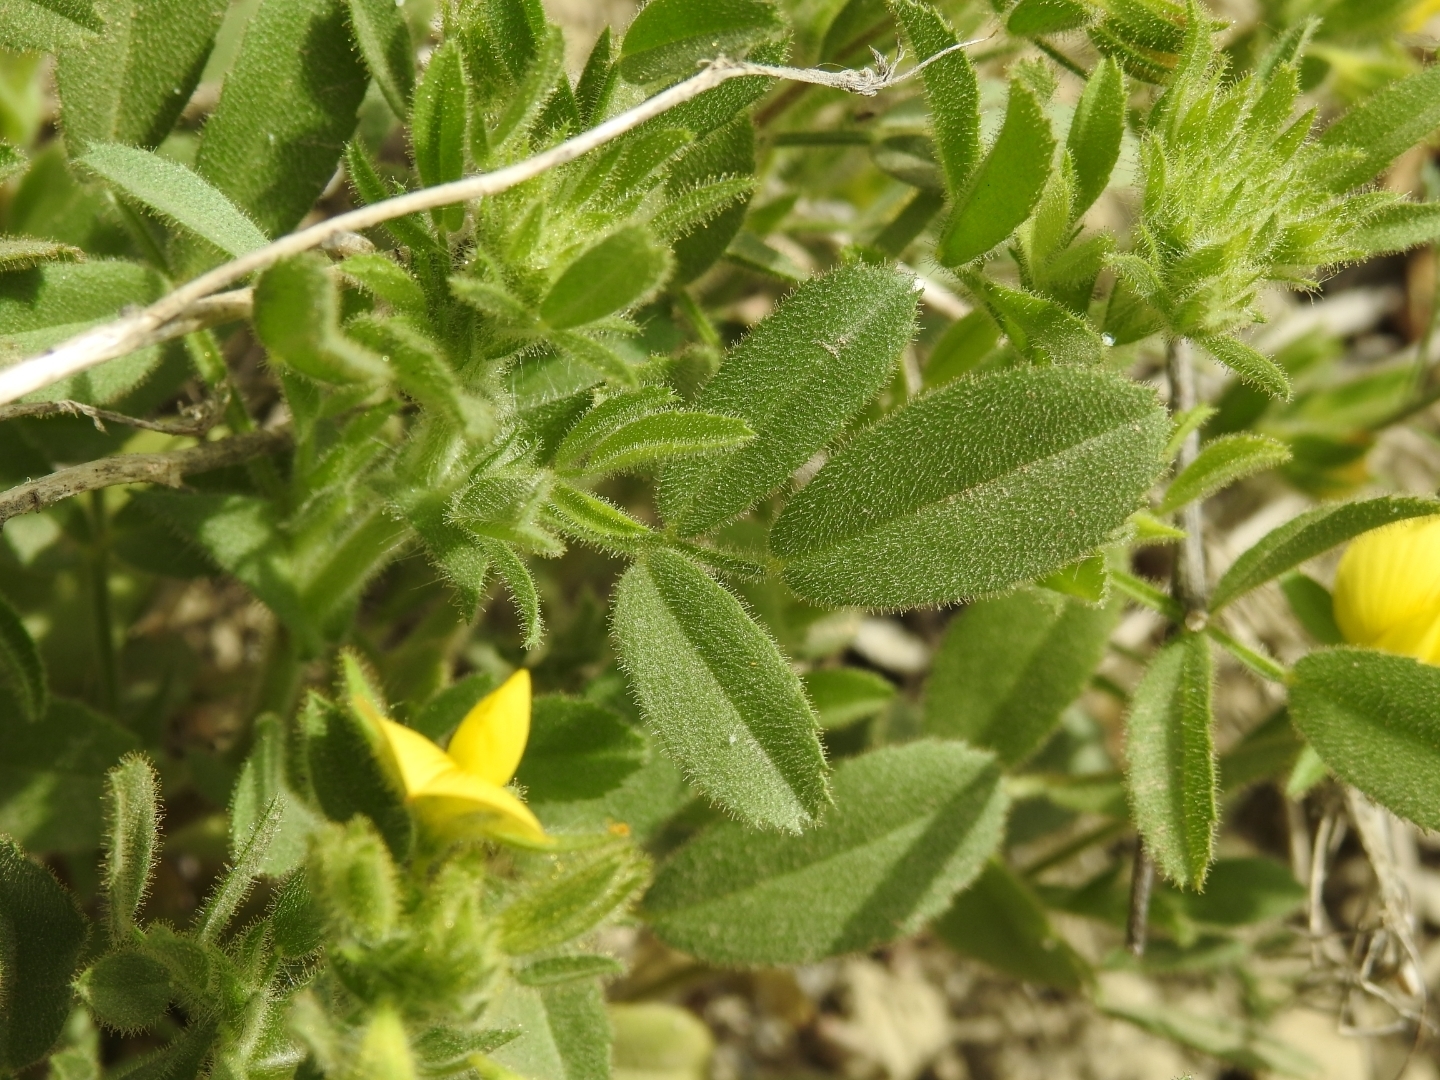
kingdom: Plantae
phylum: Tracheophyta
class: Magnoliopsida
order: Fabales
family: Fabaceae
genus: Ononis
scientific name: Ononis pubescens
